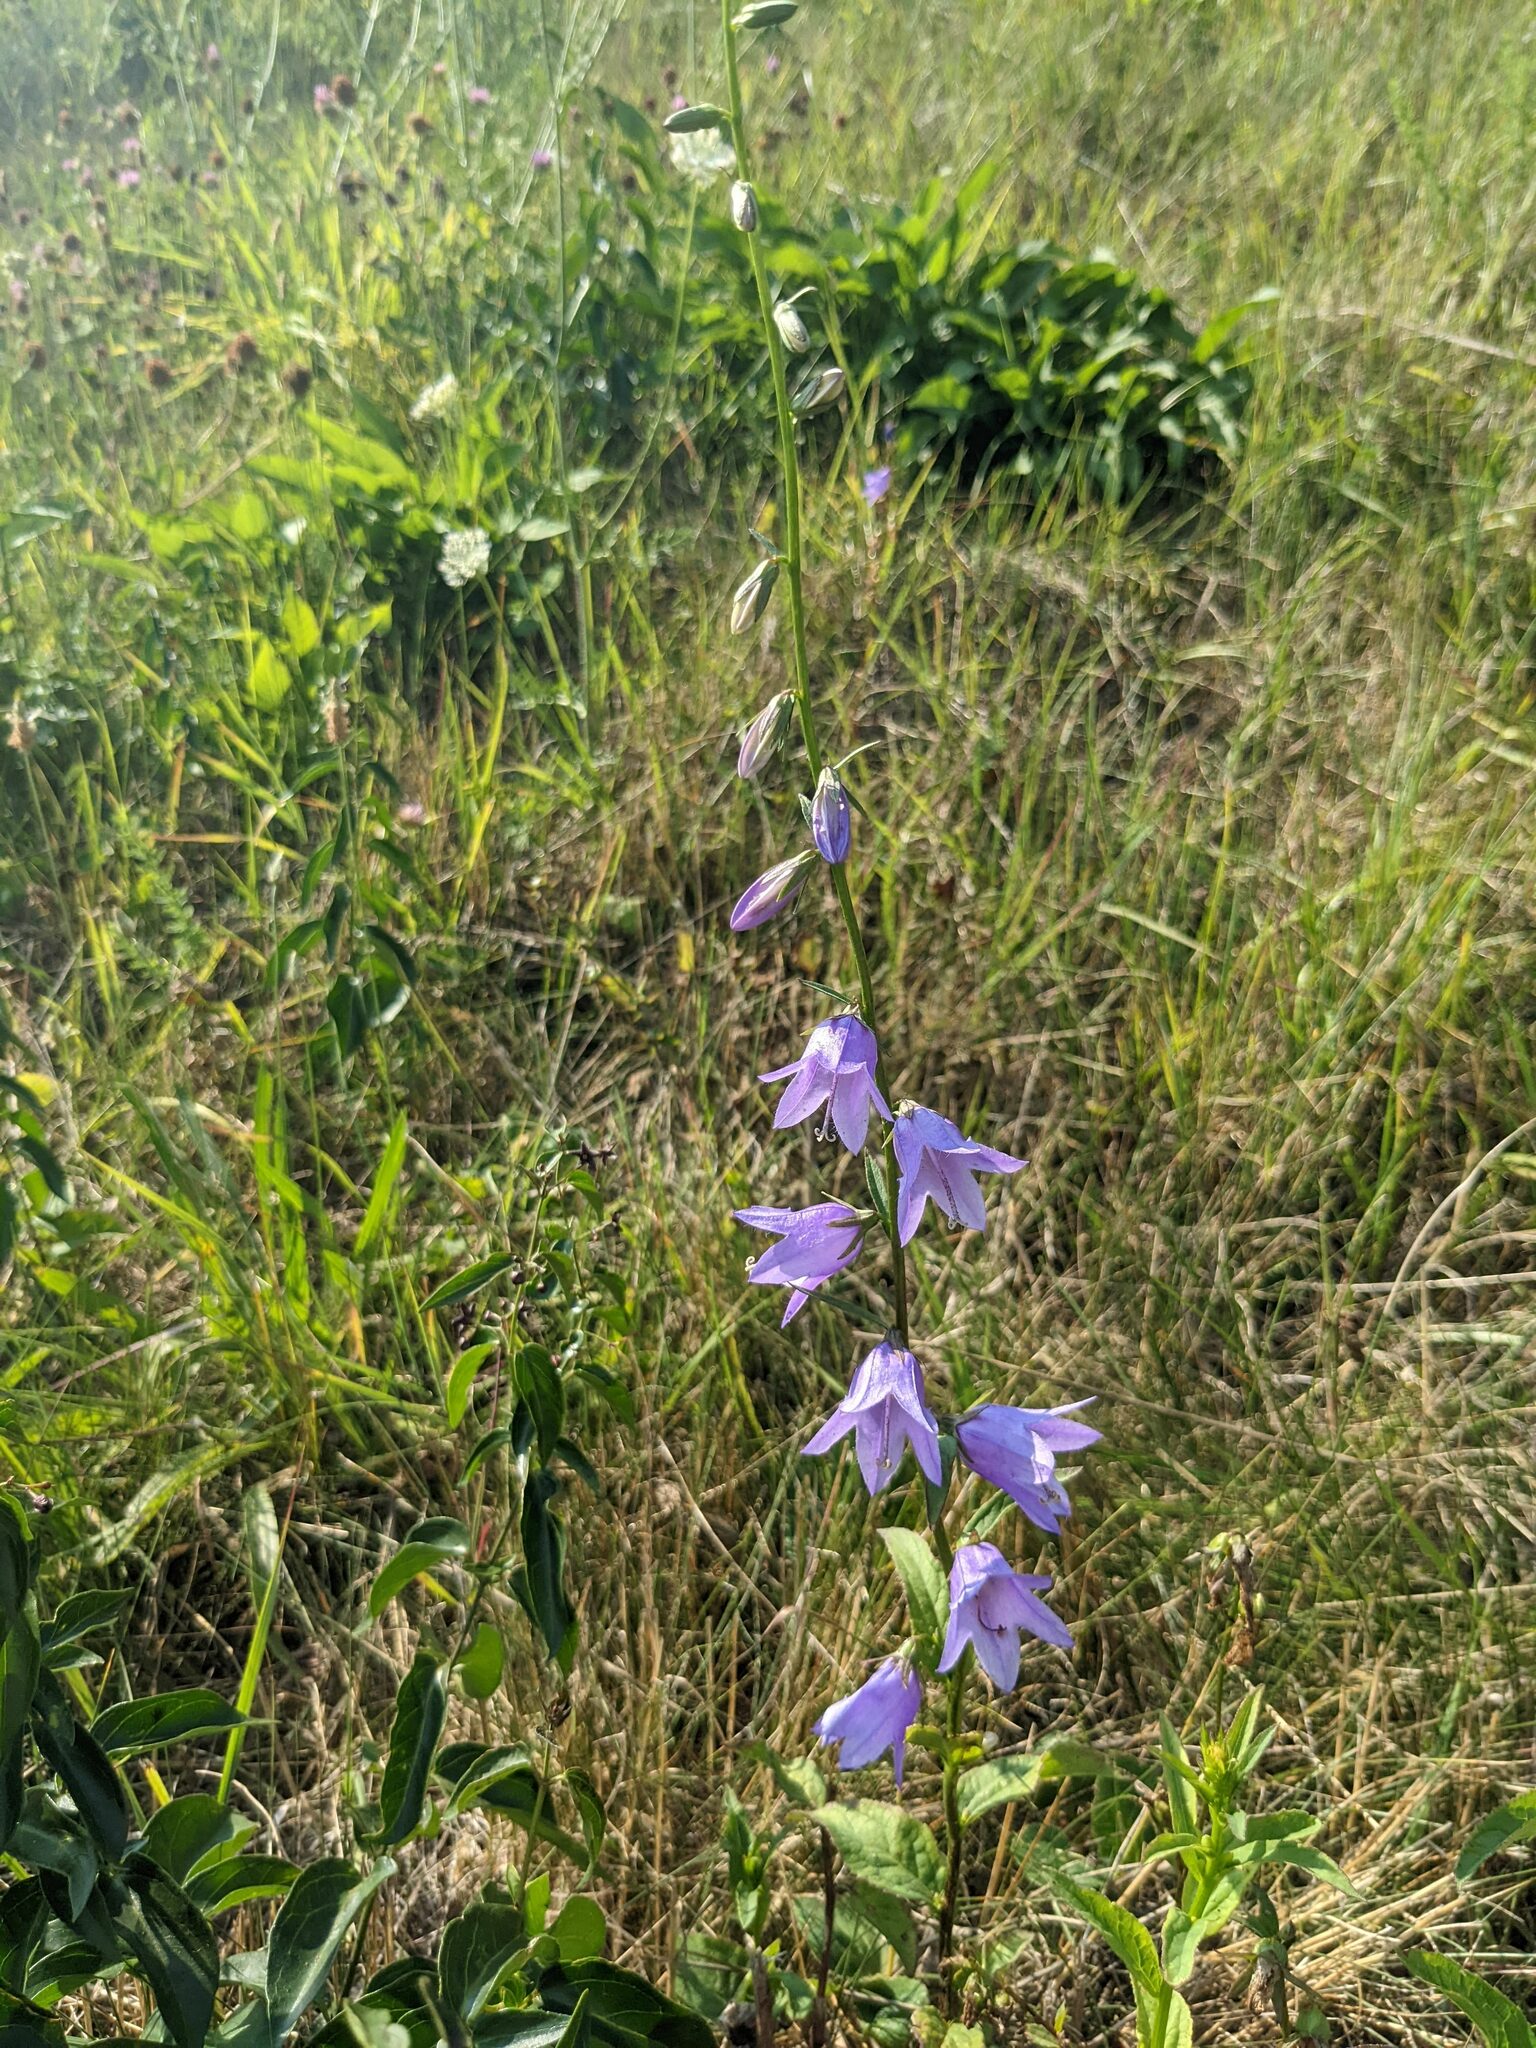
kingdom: Plantae
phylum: Tracheophyta
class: Magnoliopsida
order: Asterales
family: Campanulaceae
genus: Campanula
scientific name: Campanula rapunculoides
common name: Creeping bellflower
